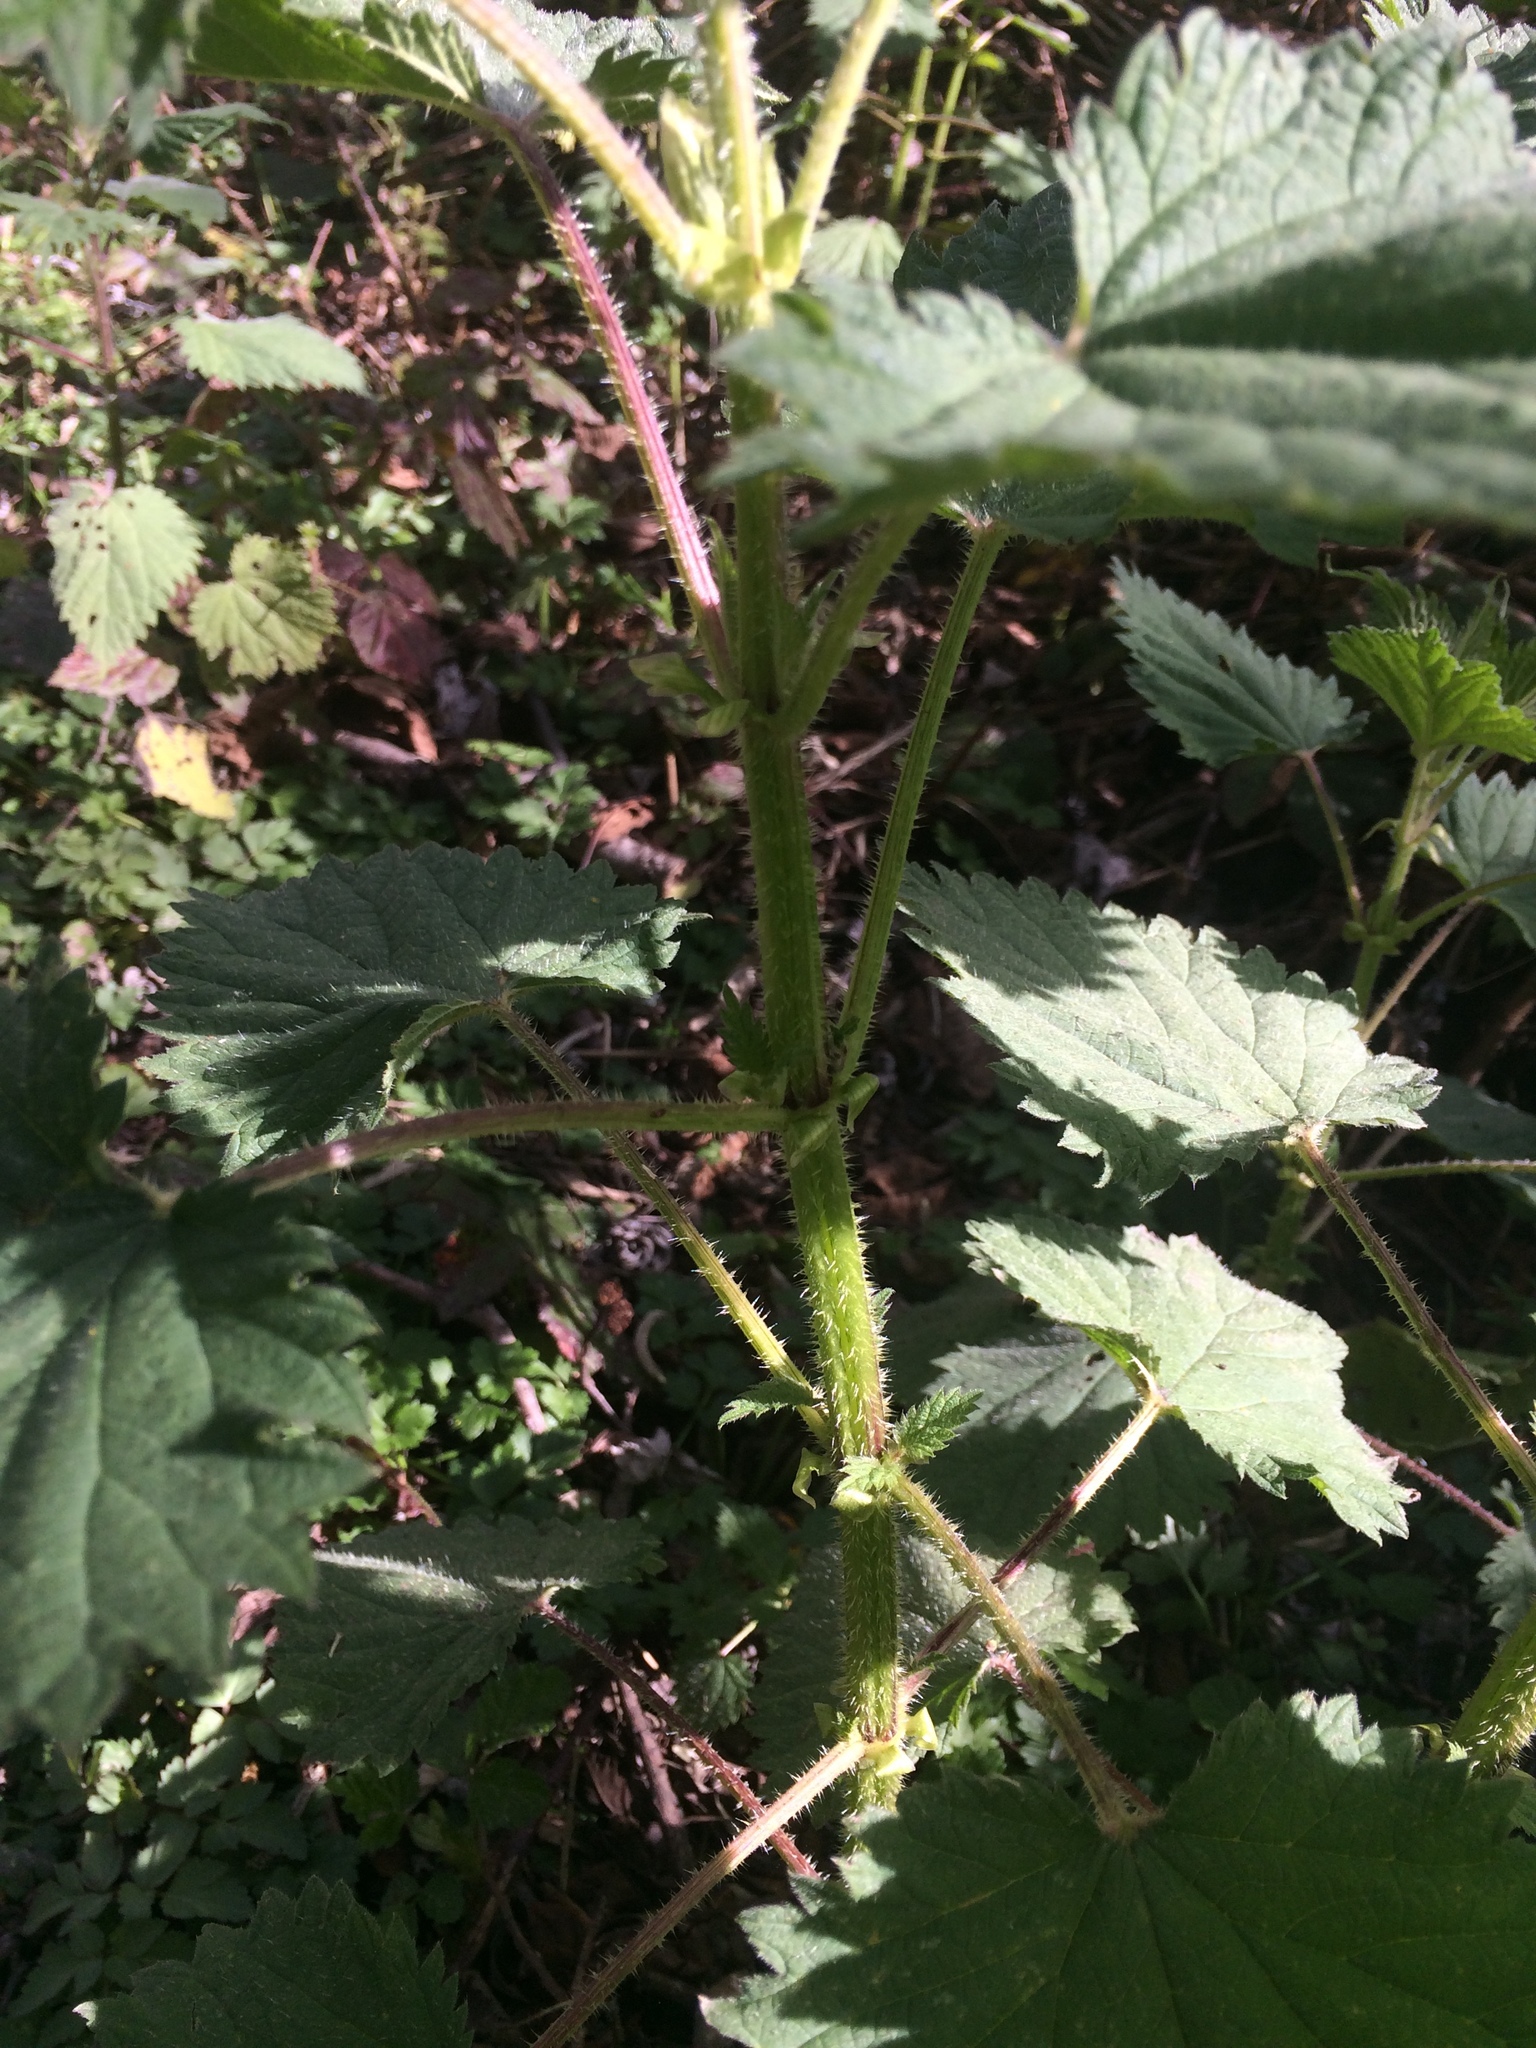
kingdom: Plantae
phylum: Tracheophyta
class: Magnoliopsida
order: Rosales
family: Urticaceae
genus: Urtica
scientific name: Urtica dioica
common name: Common nettle
